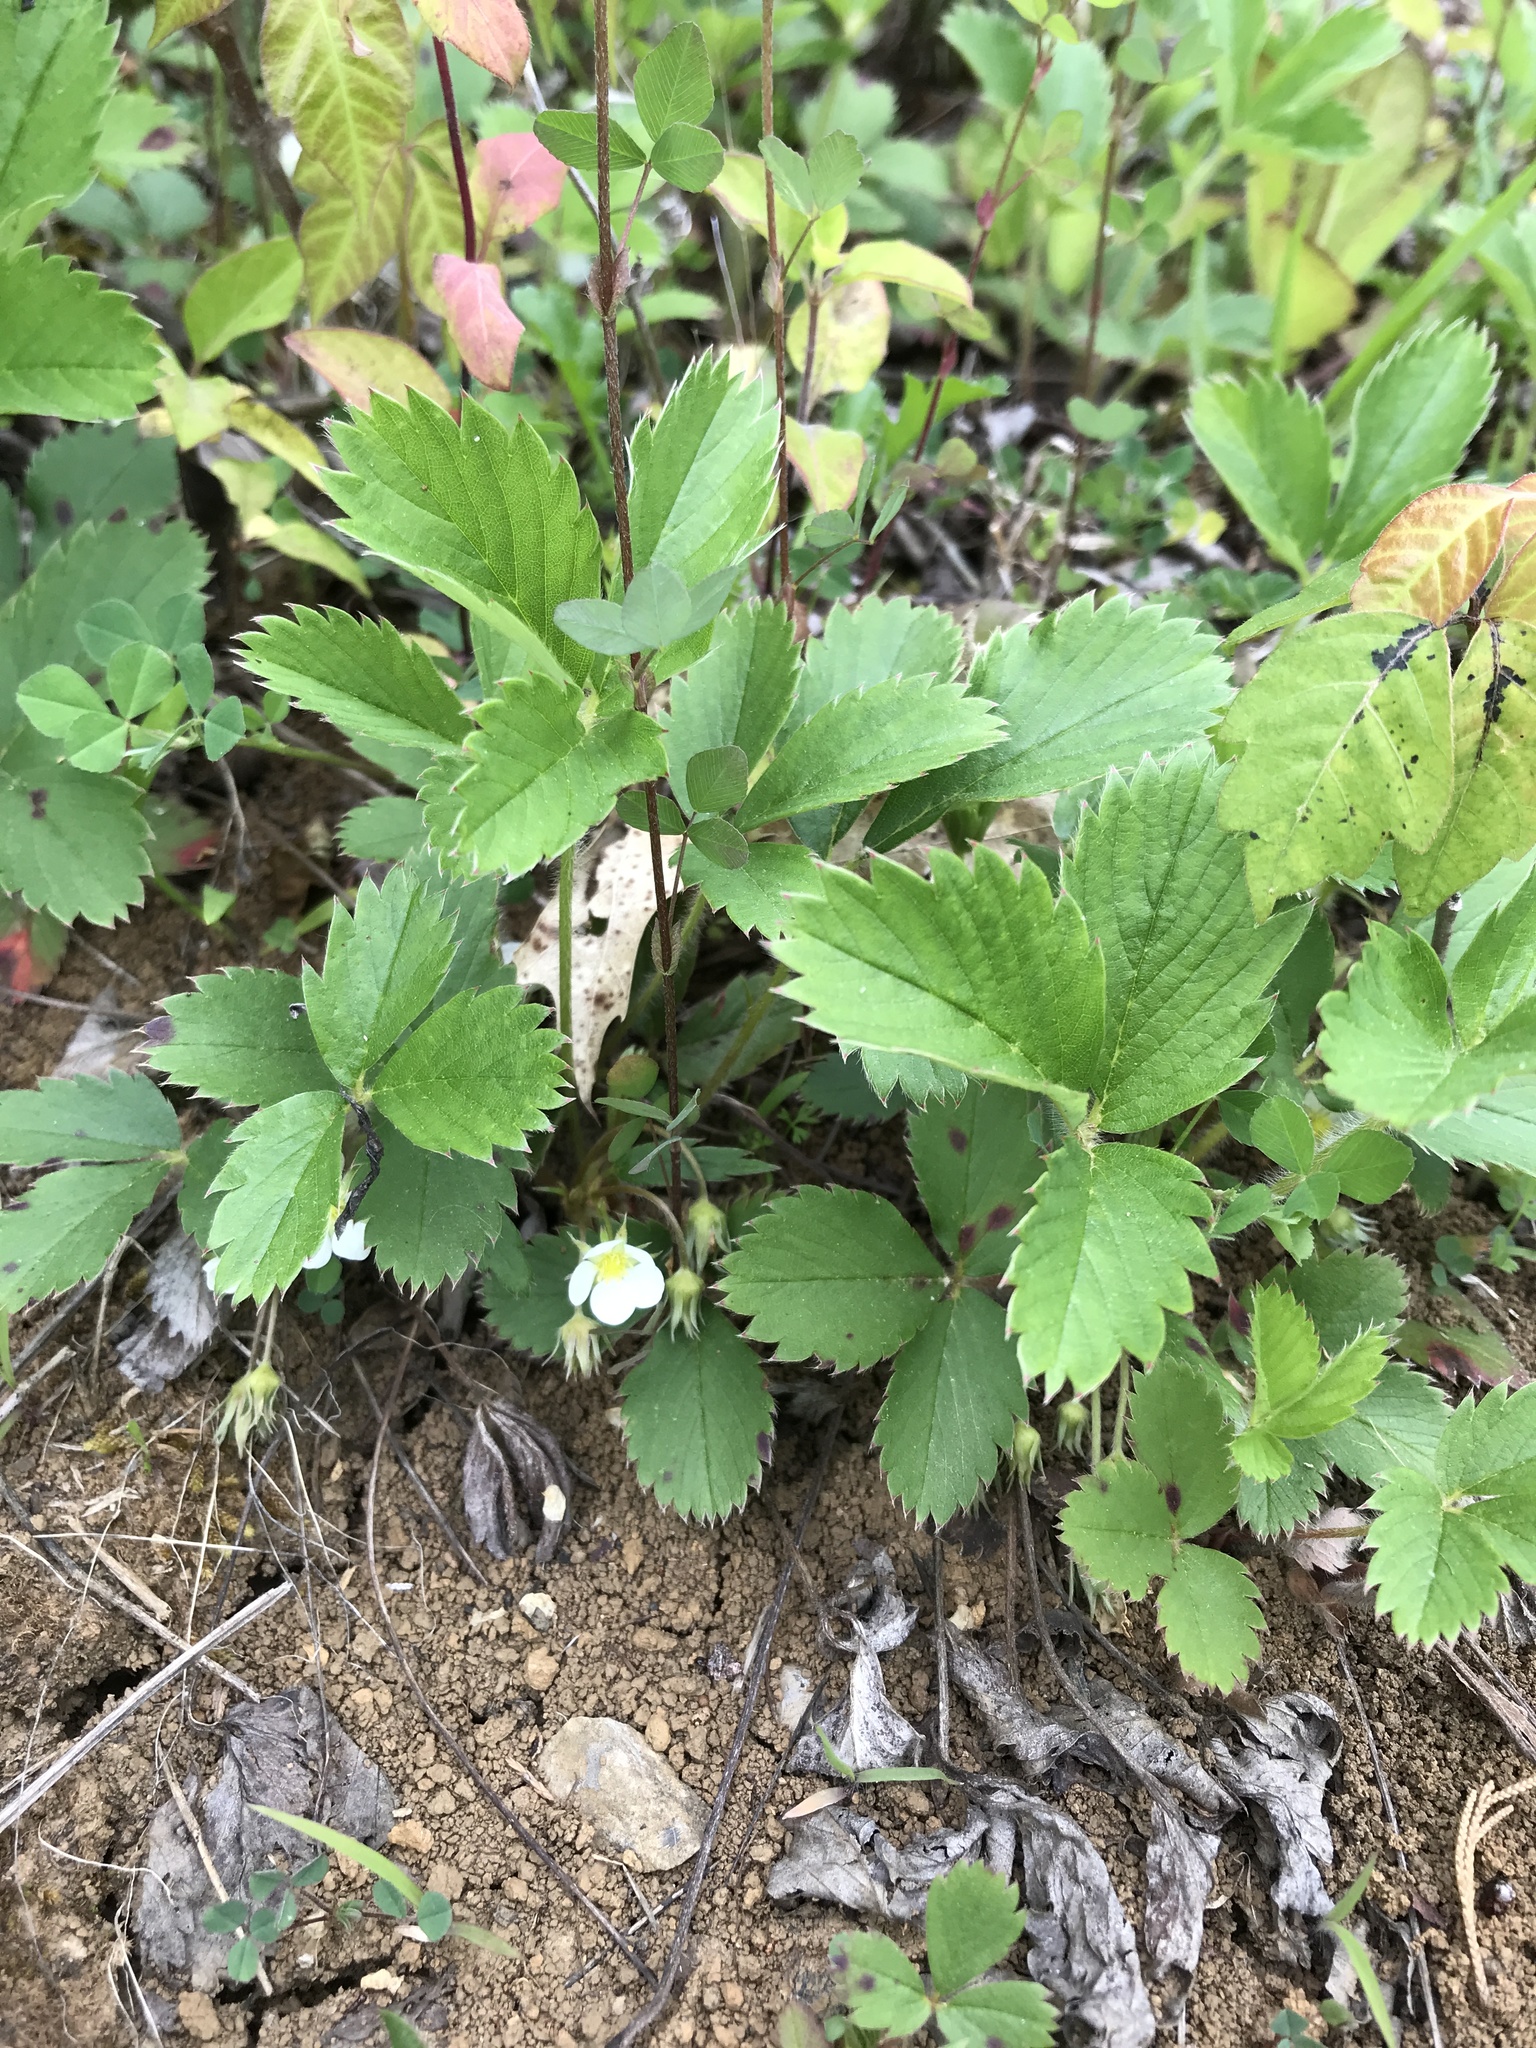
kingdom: Plantae
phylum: Tracheophyta
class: Magnoliopsida
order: Rosales
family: Rosaceae
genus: Fragaria
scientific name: Fragaria vesca
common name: Wild strawberry
